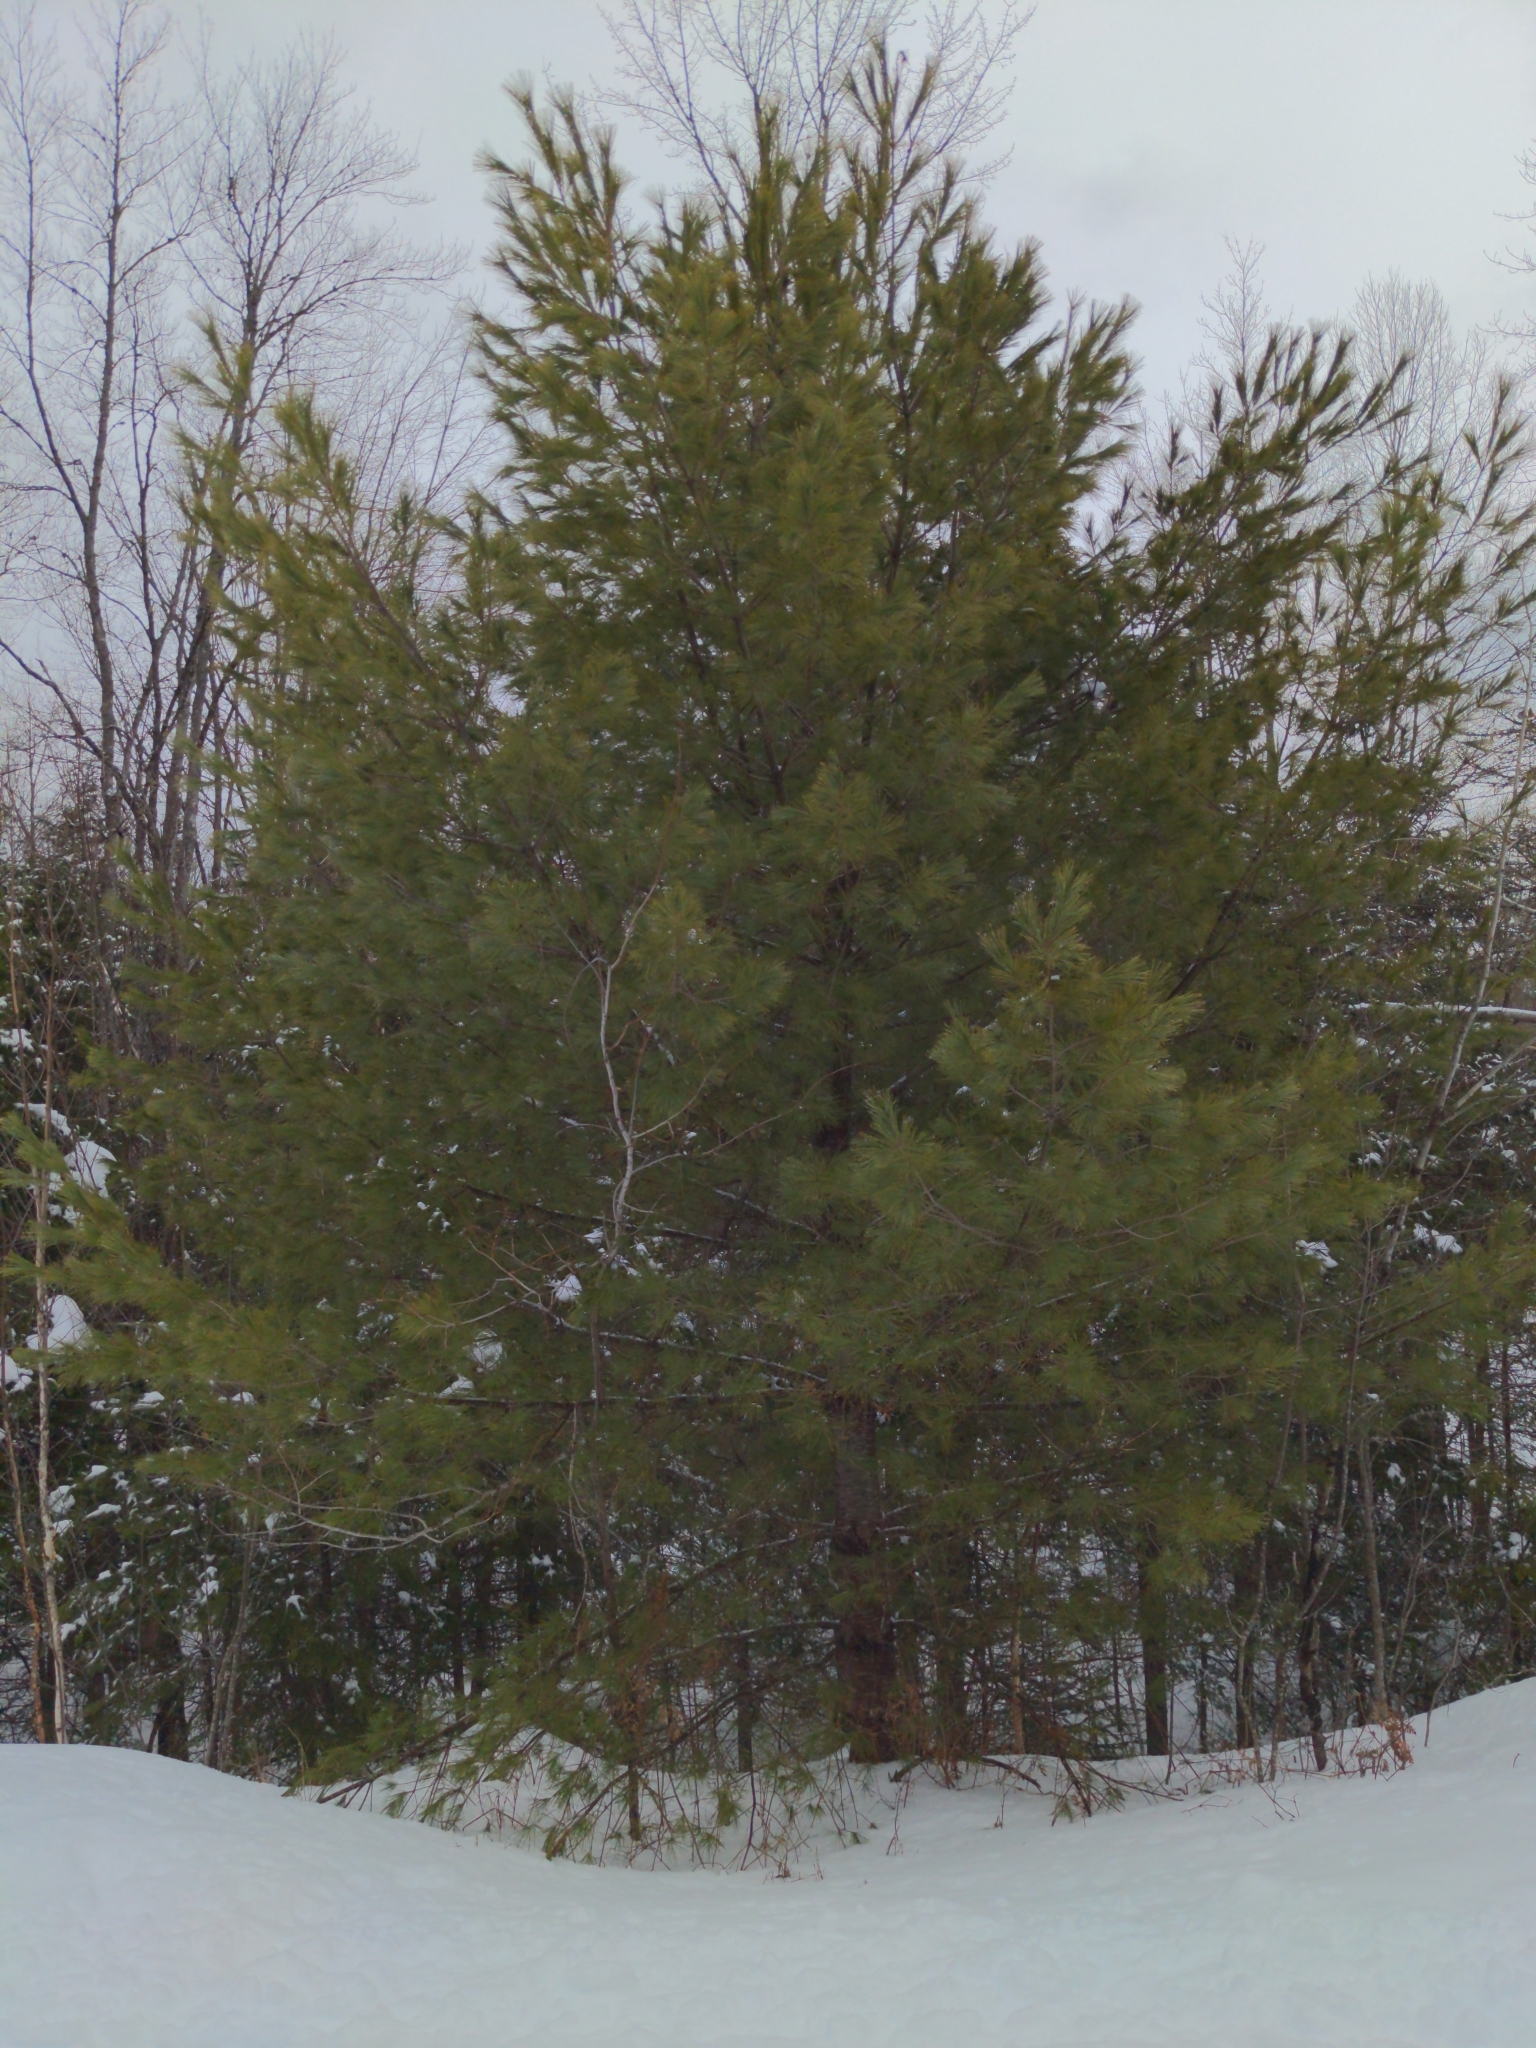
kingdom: Plantae
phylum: Tracheophyta
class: Pinopsida
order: Pinales
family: Pinaceae
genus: Pinus
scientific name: Pinus strobus
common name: Weymouth pine
